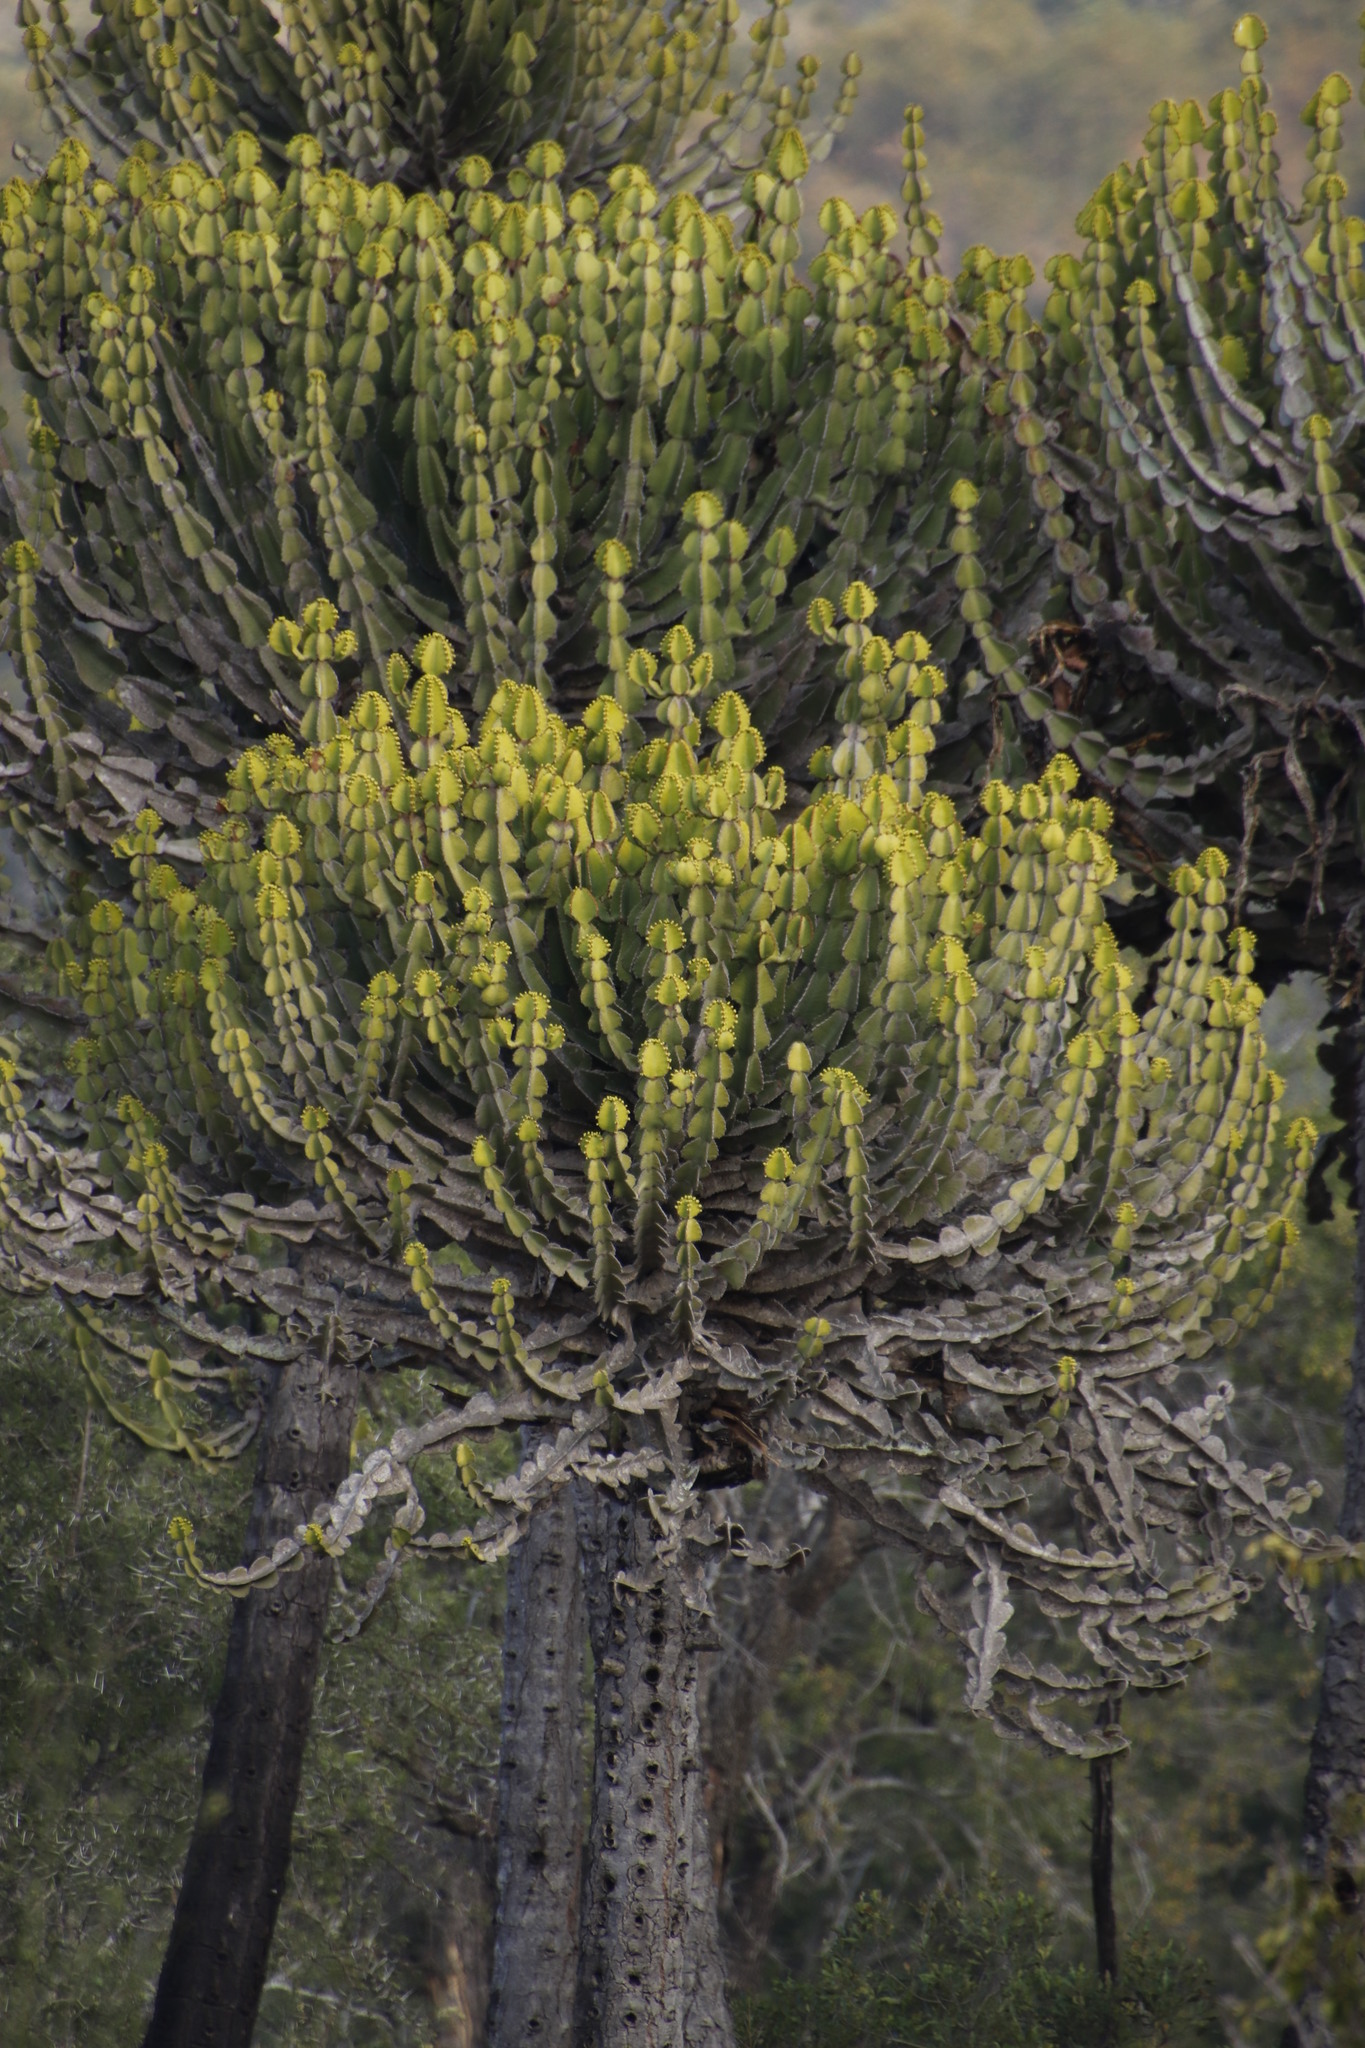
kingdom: Plantae
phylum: Tracheophyta
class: Magnoliopsida
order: Malpighiales
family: Euphorbiaceae
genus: Euphorbia
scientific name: Euphorbia cooperi
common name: Candelabra tree
